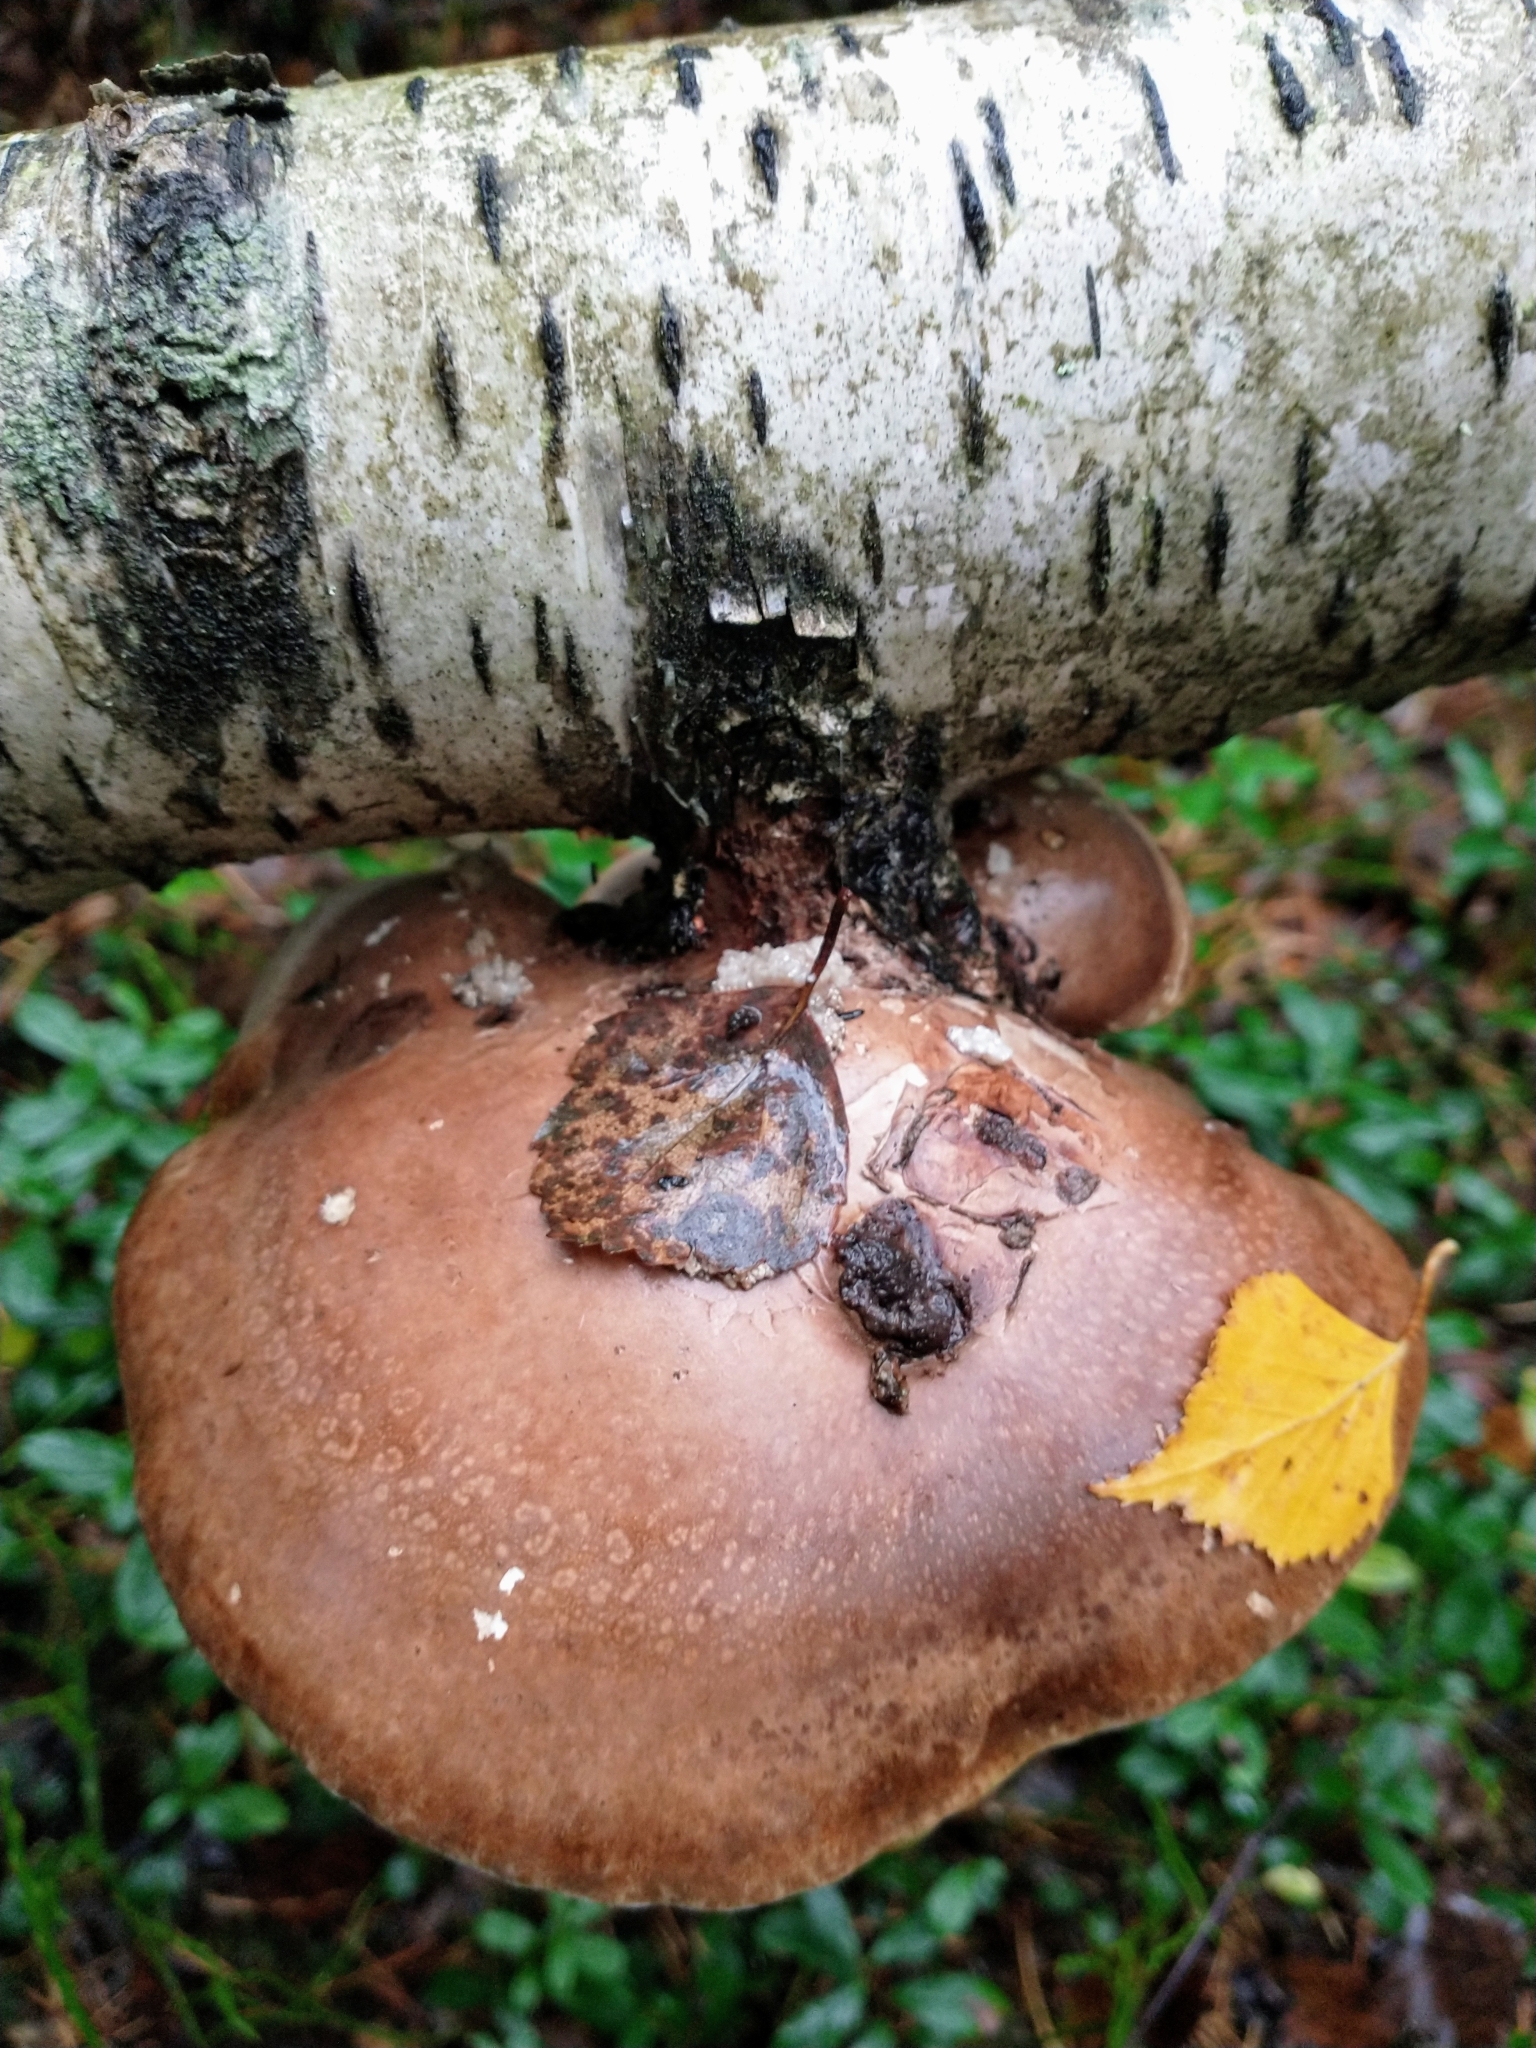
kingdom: Fungi
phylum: Basidiomycota
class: Agaricomycetes
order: Polyporales
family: Fomitopsidaceae
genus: Fomitopsis
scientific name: Fomitopsis betulina
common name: Birch polypore
